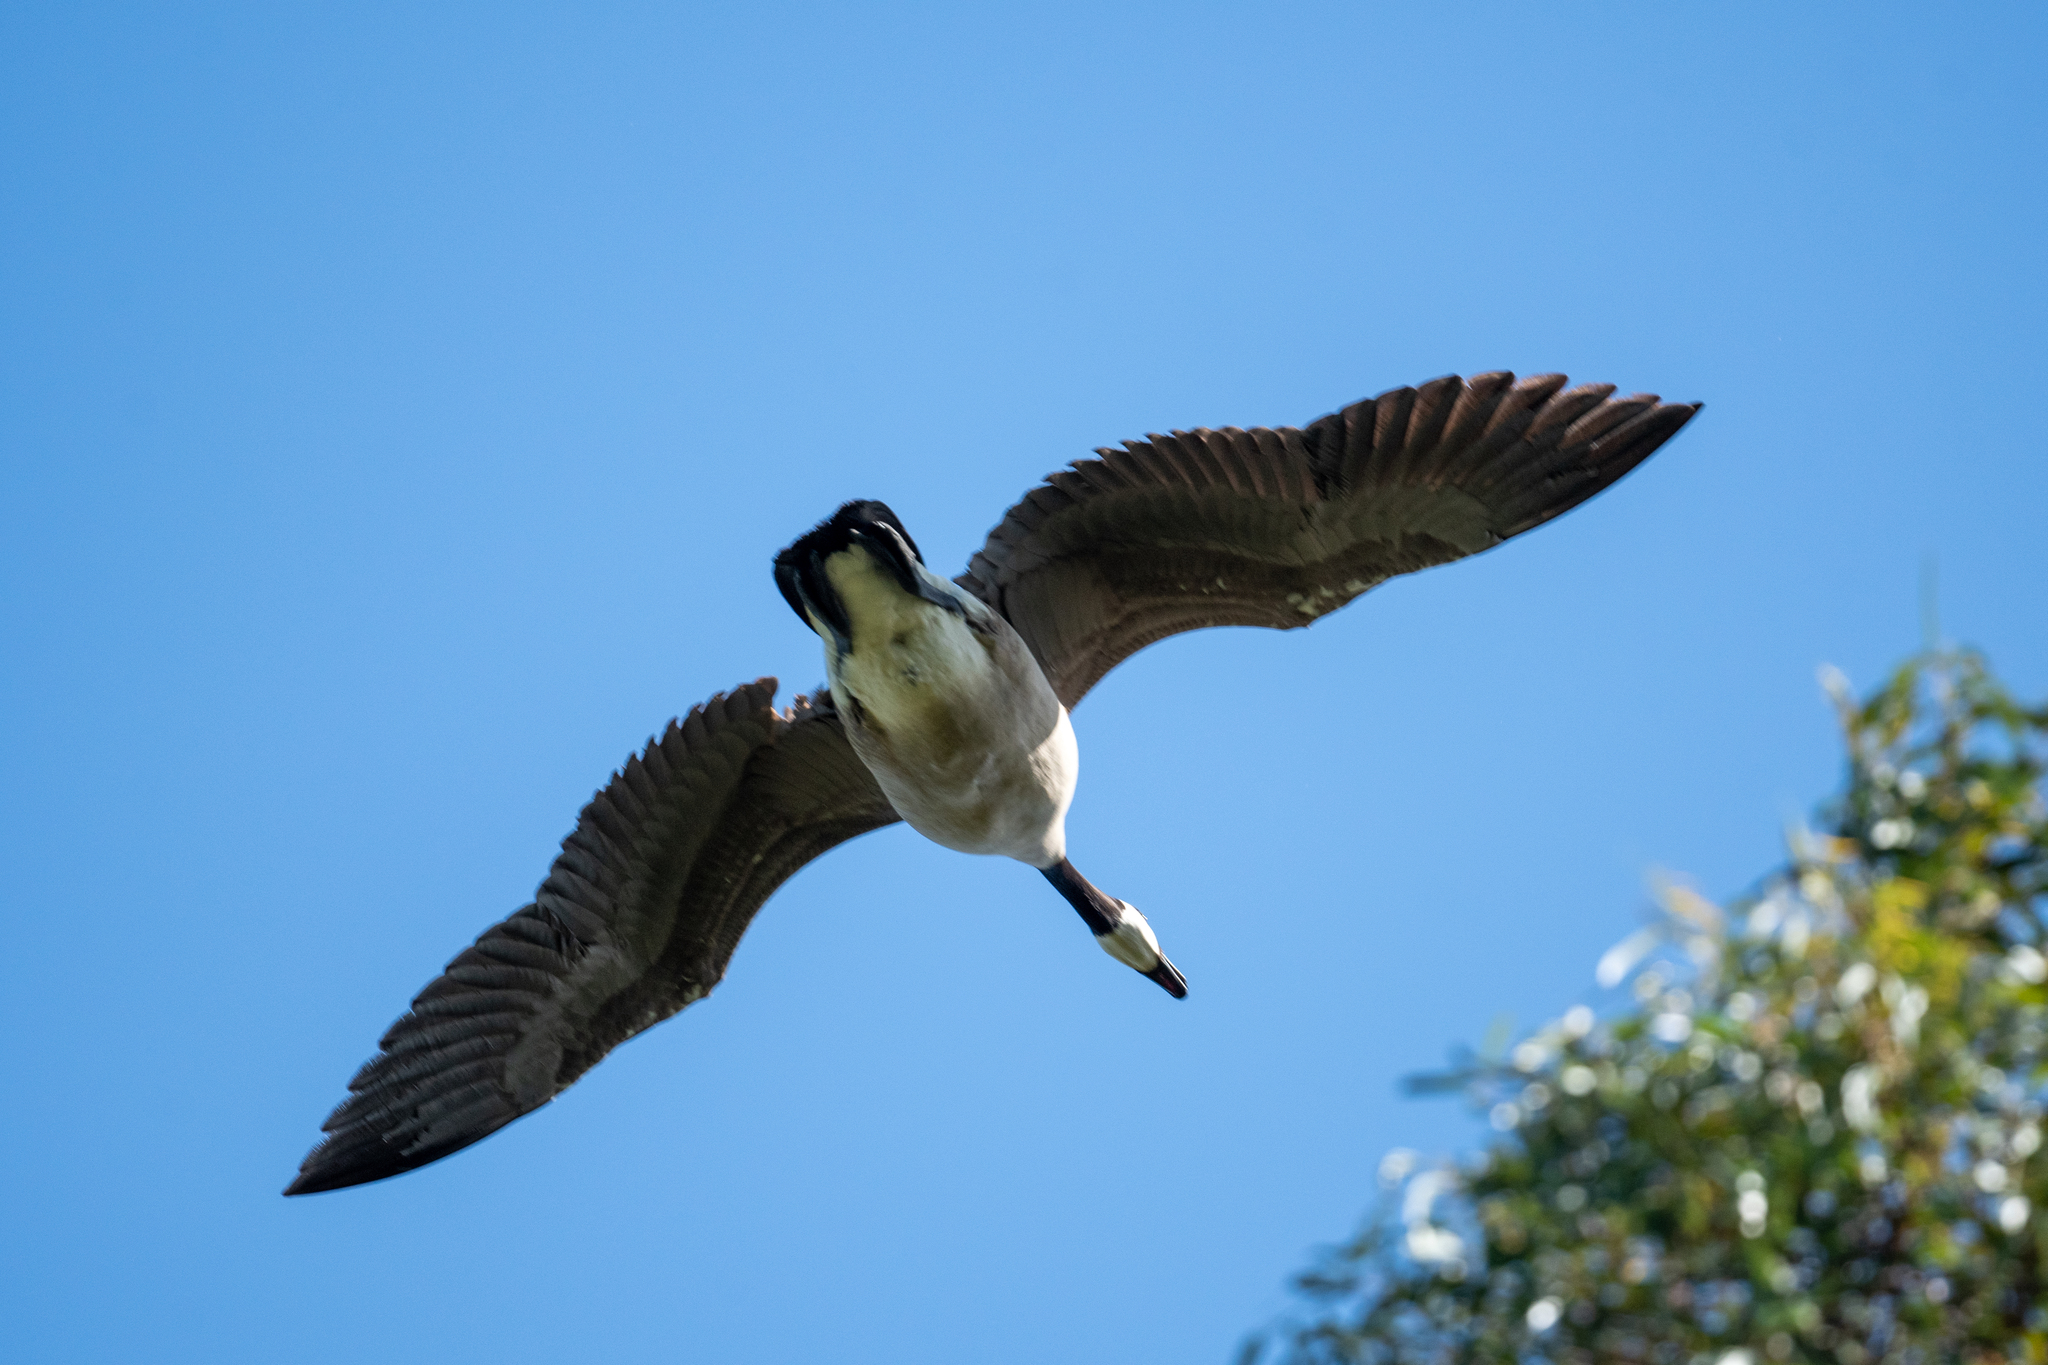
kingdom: Animalia
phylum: Chordata
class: Aves
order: Anseriformes
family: Anatidae
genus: Branta
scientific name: Branta canadensis
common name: Canada goose
